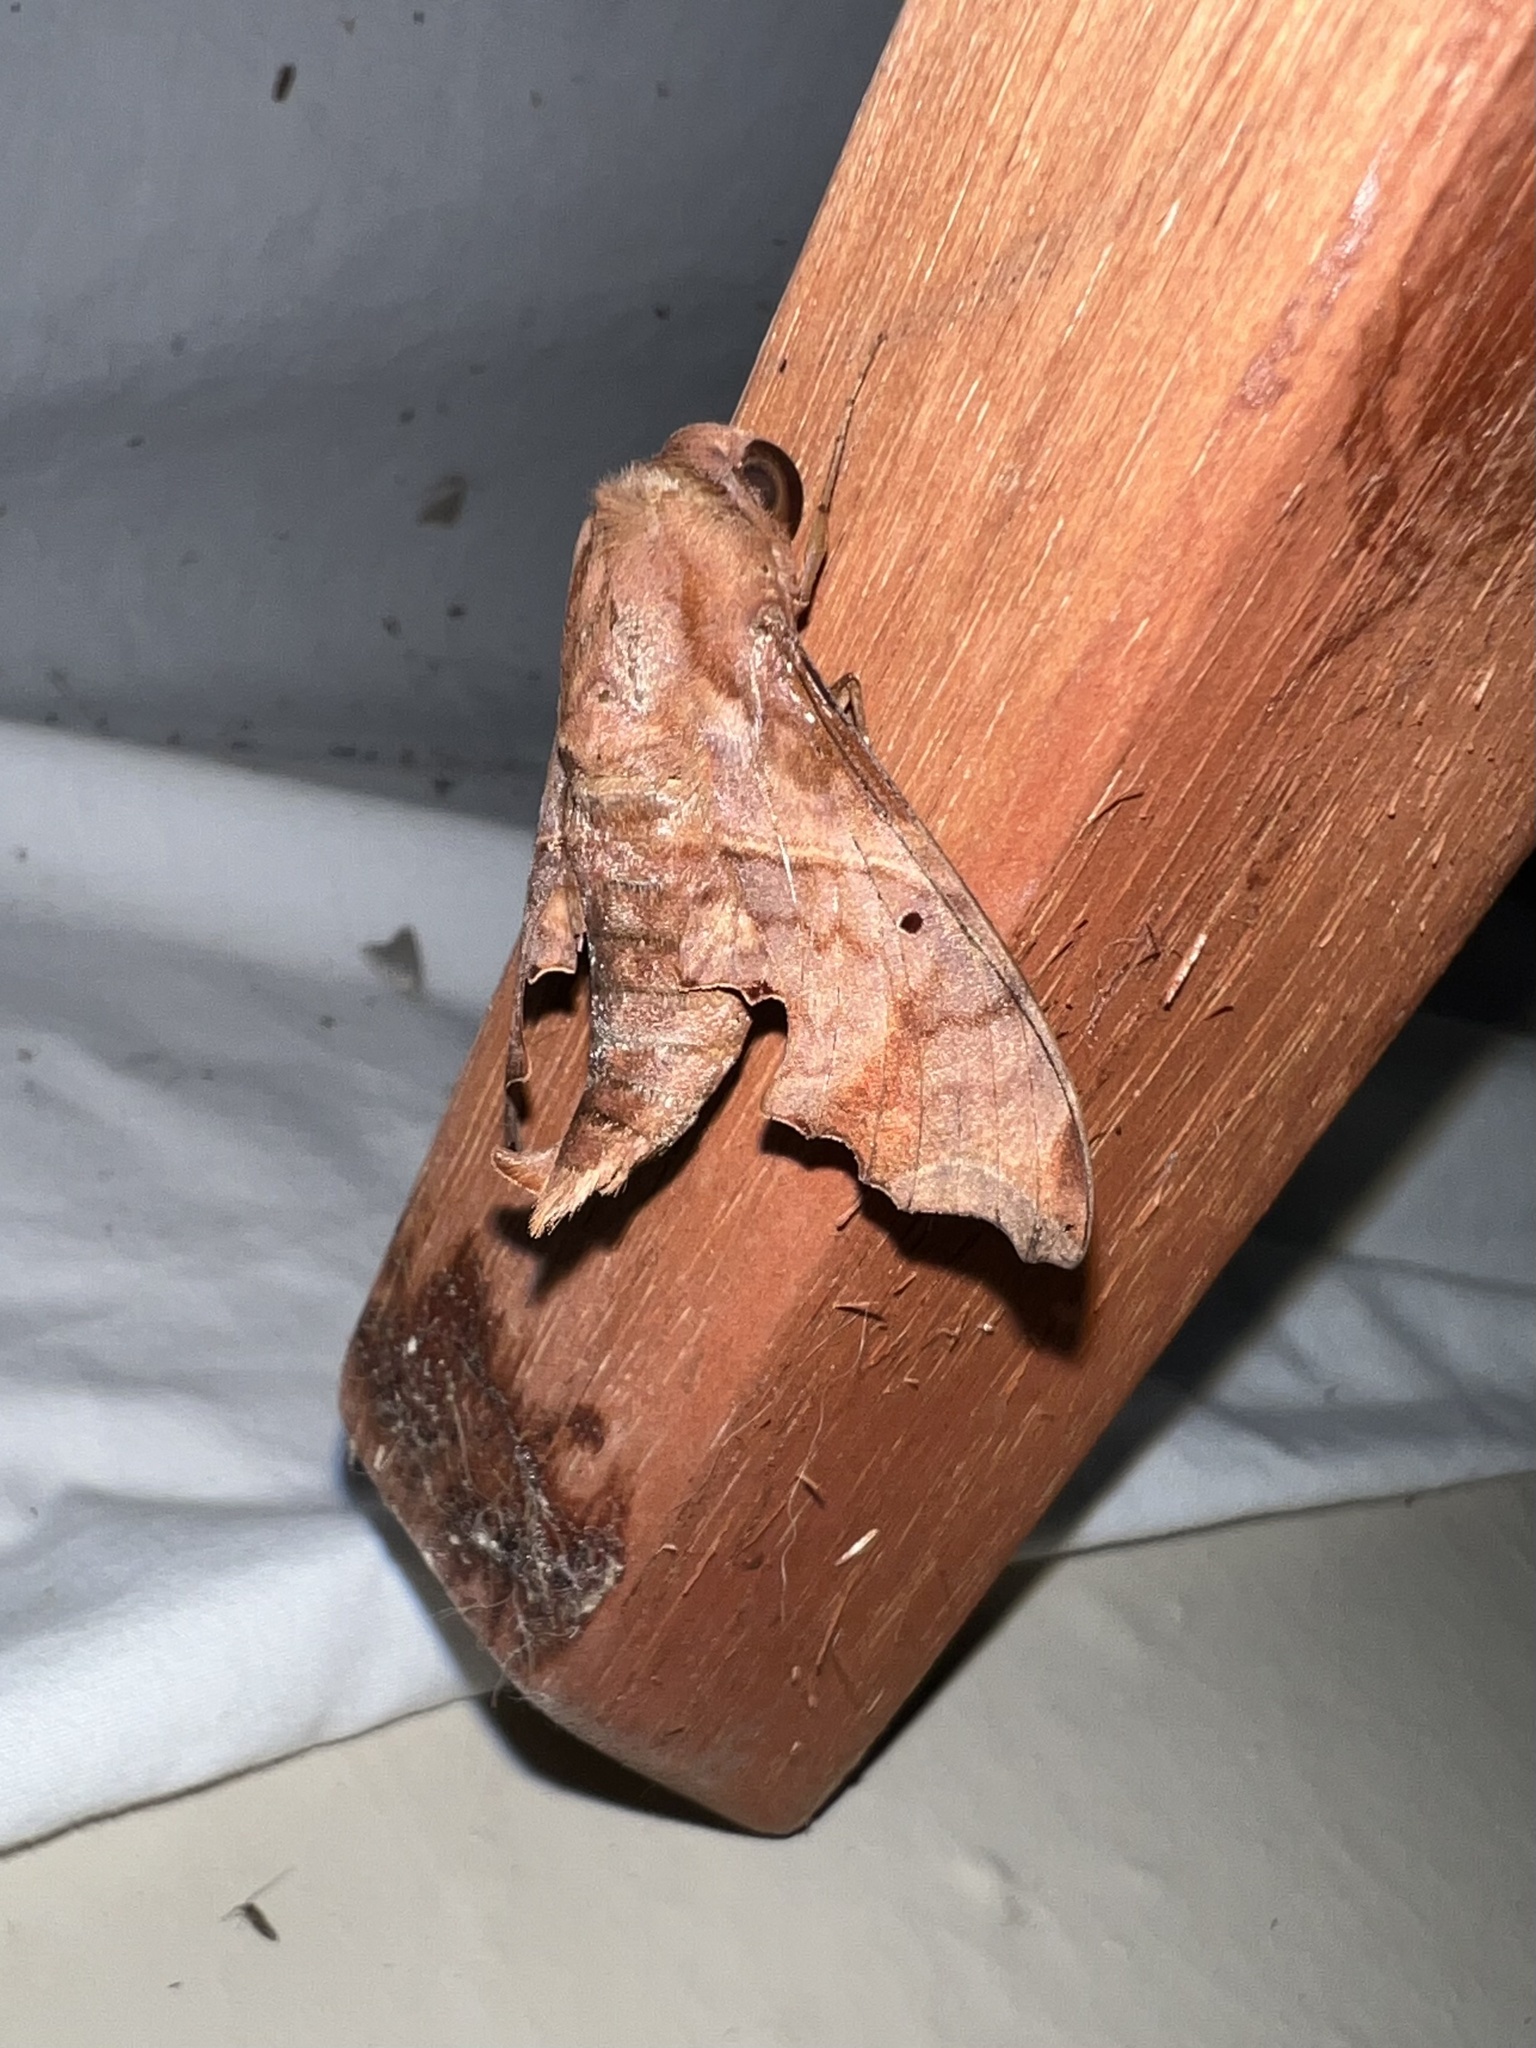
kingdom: Animalia
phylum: Arthropoda
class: Insecta
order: Lepidoptera
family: Sphingidae
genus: Enyo
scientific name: Enyo lugubris
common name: Mournful sphinx
